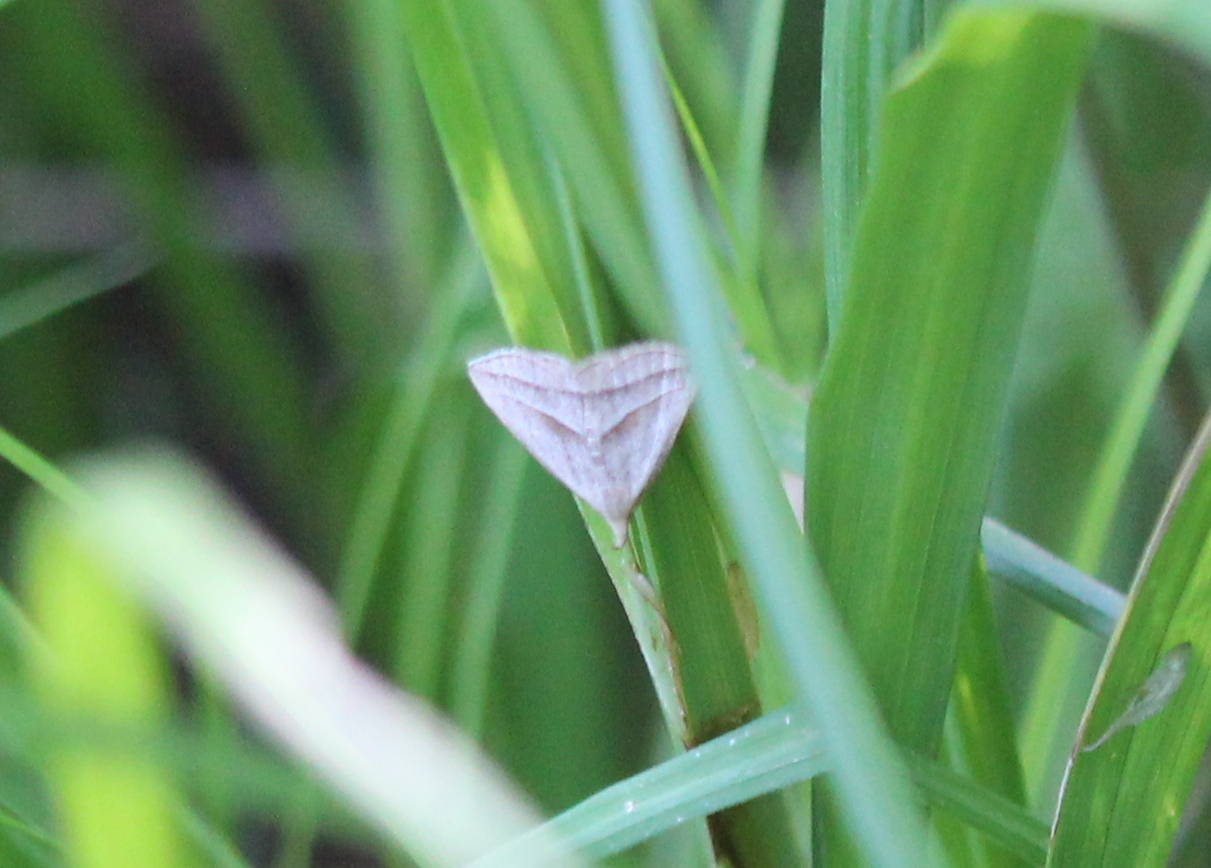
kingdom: Animalia
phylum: Arthropoda
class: Insecta
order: Lepidoptera
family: Erebidae
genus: Macrochilo
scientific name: Macrochilo absorptalis
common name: Slant-lined owlet
